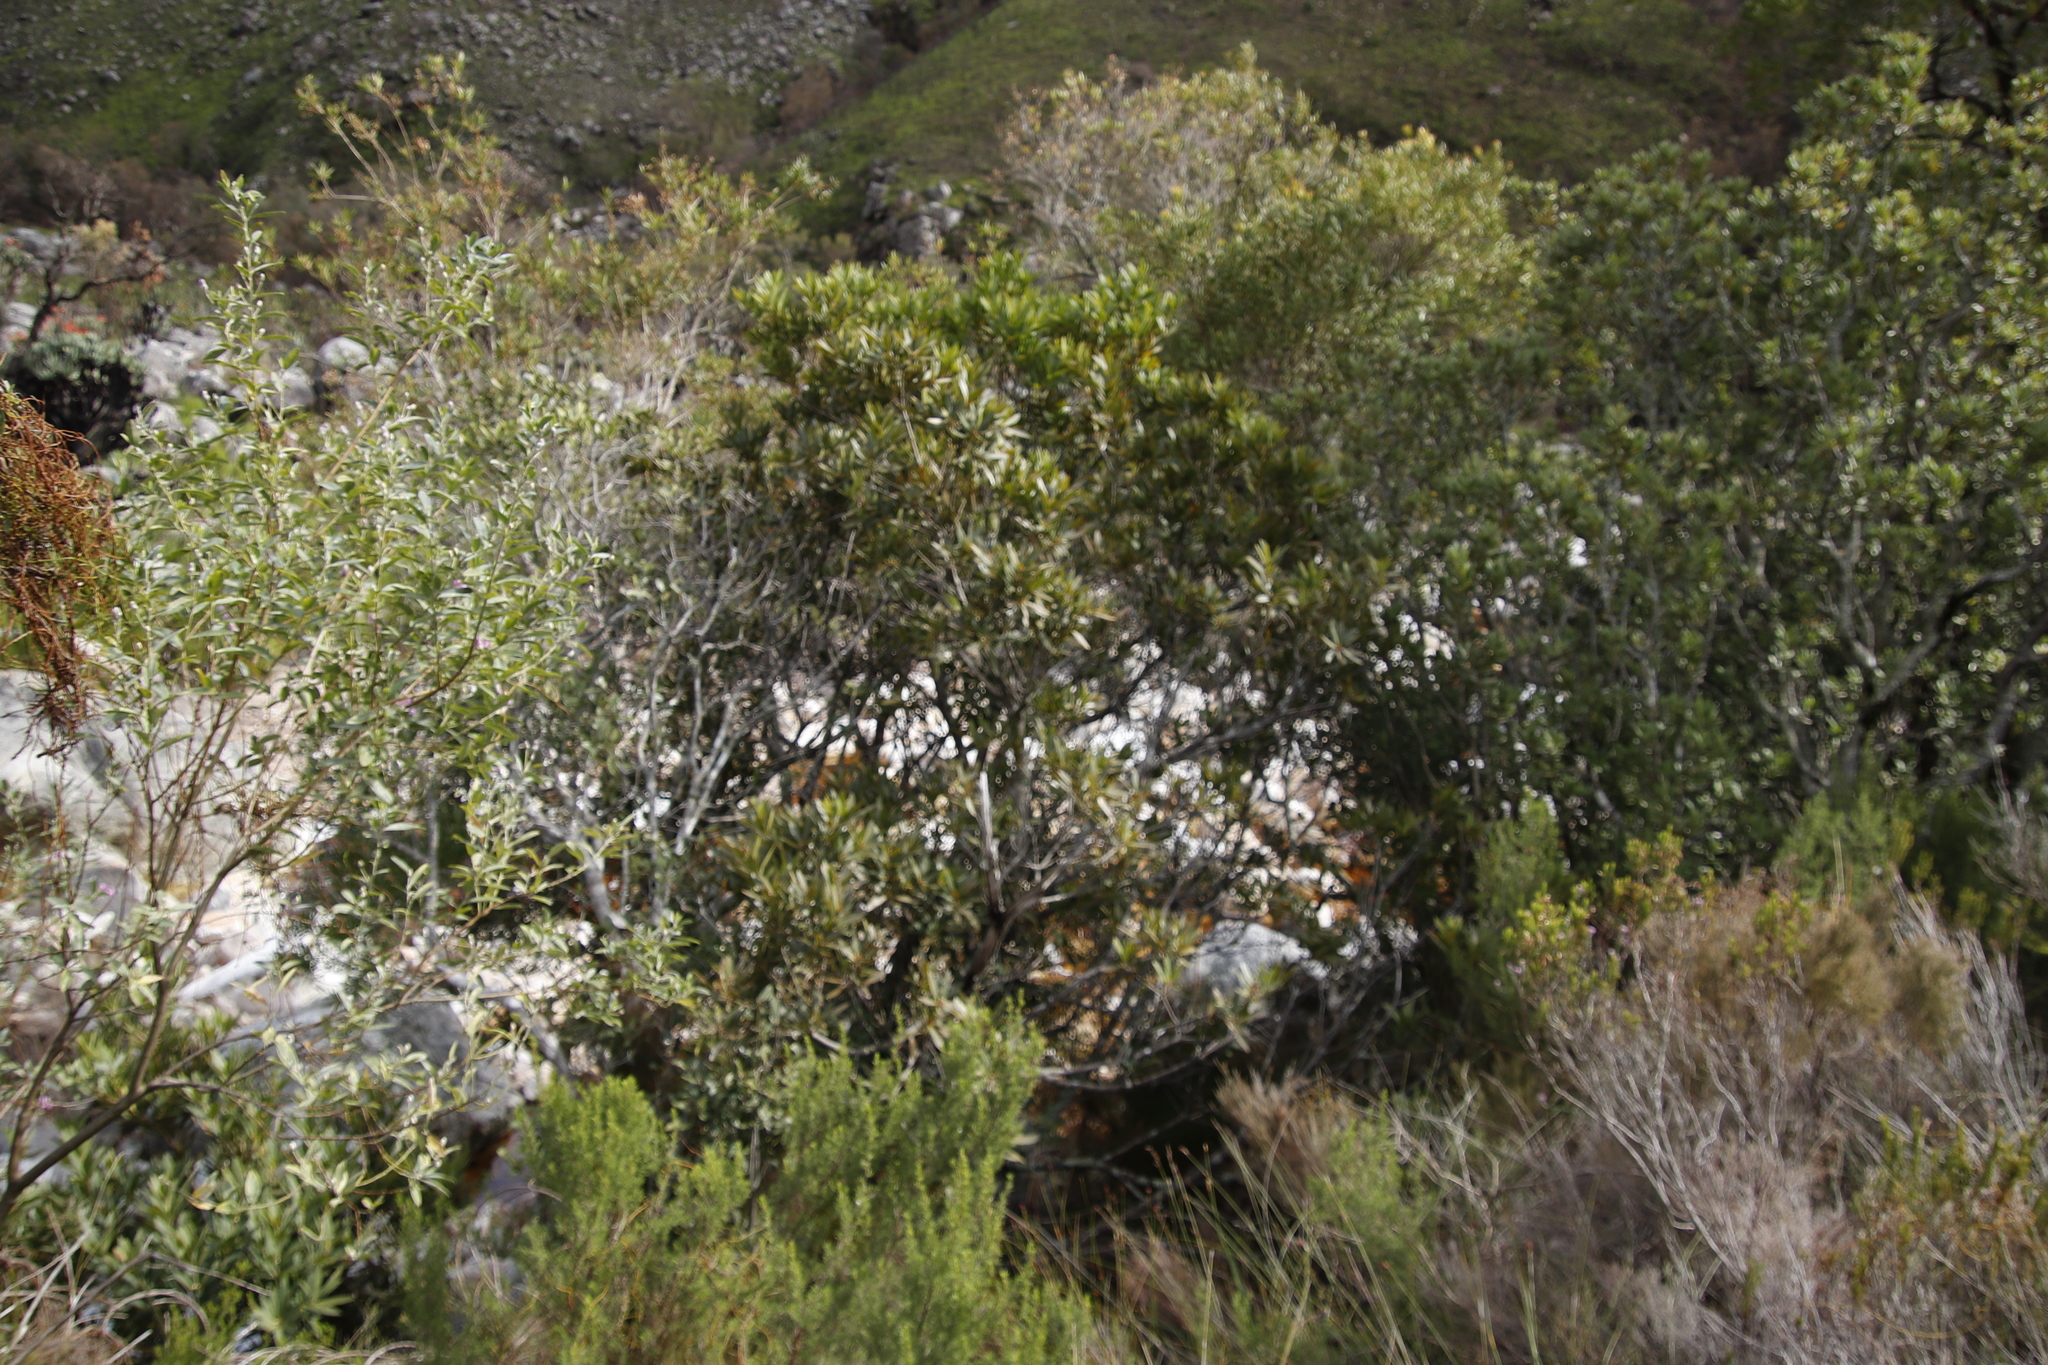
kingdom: Plantae
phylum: Tracheophyta
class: Magnoliopsida
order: Proteales
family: Proteaceae
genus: Brabejum
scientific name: Brabejum stellatifolium
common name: Wild almond
